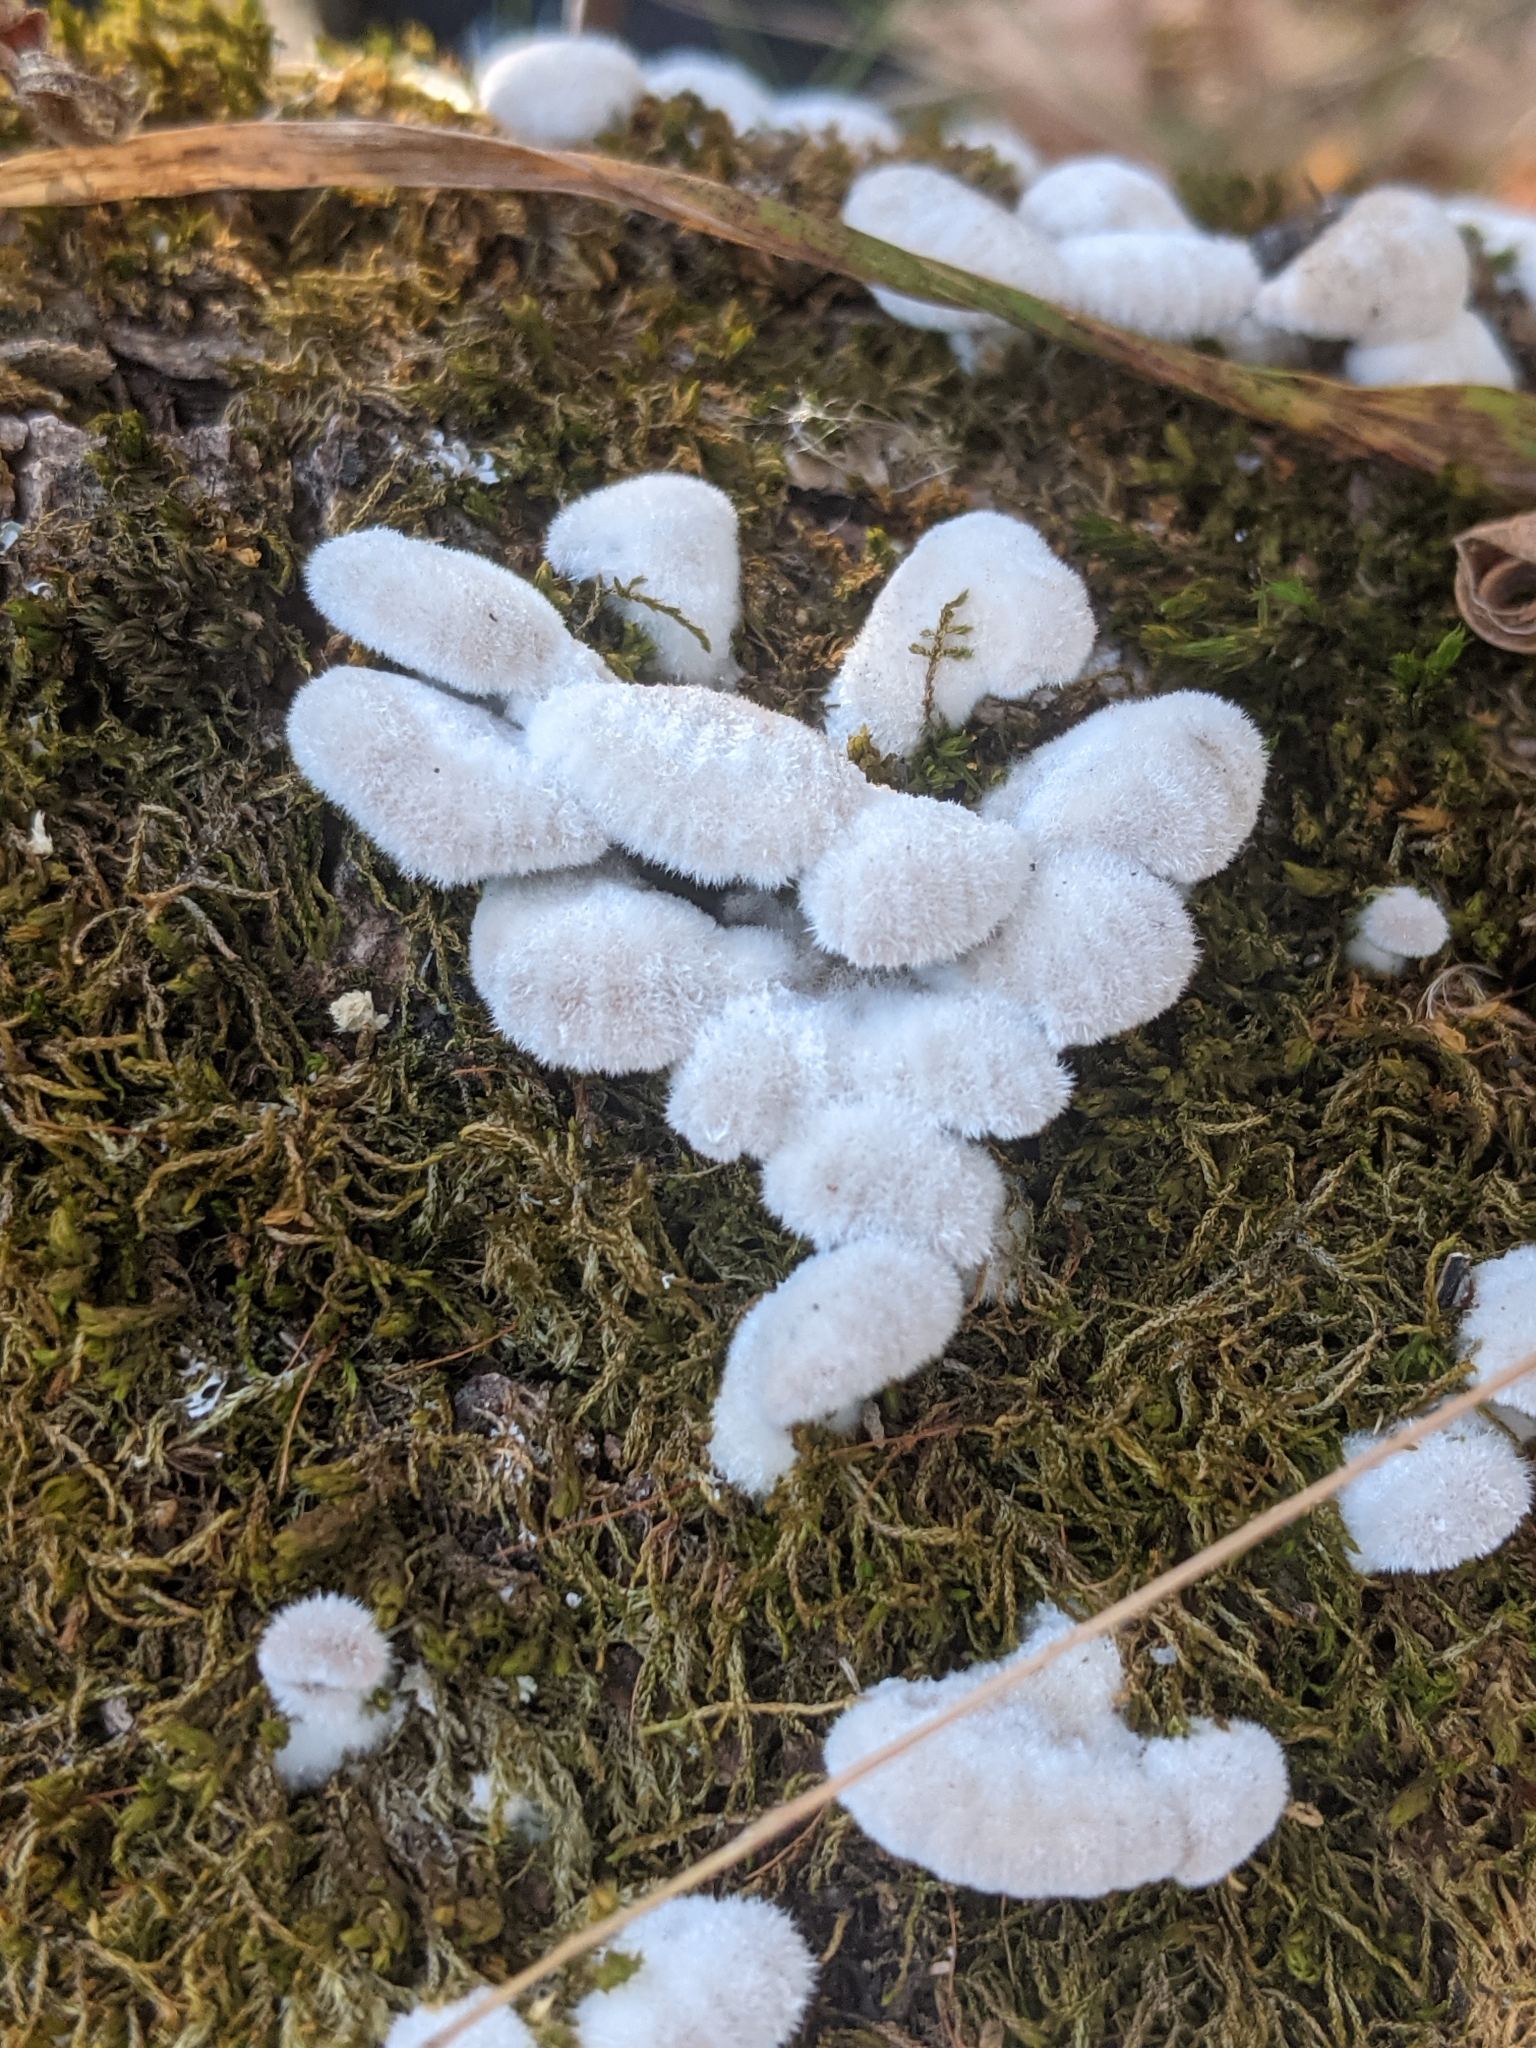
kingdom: Fungi
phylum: Basidiomycota
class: Agaricomycetes
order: Agaricales
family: Schizophyllaceae
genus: Schizophyllum
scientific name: Schizophyllum commune
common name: Common porecrust
